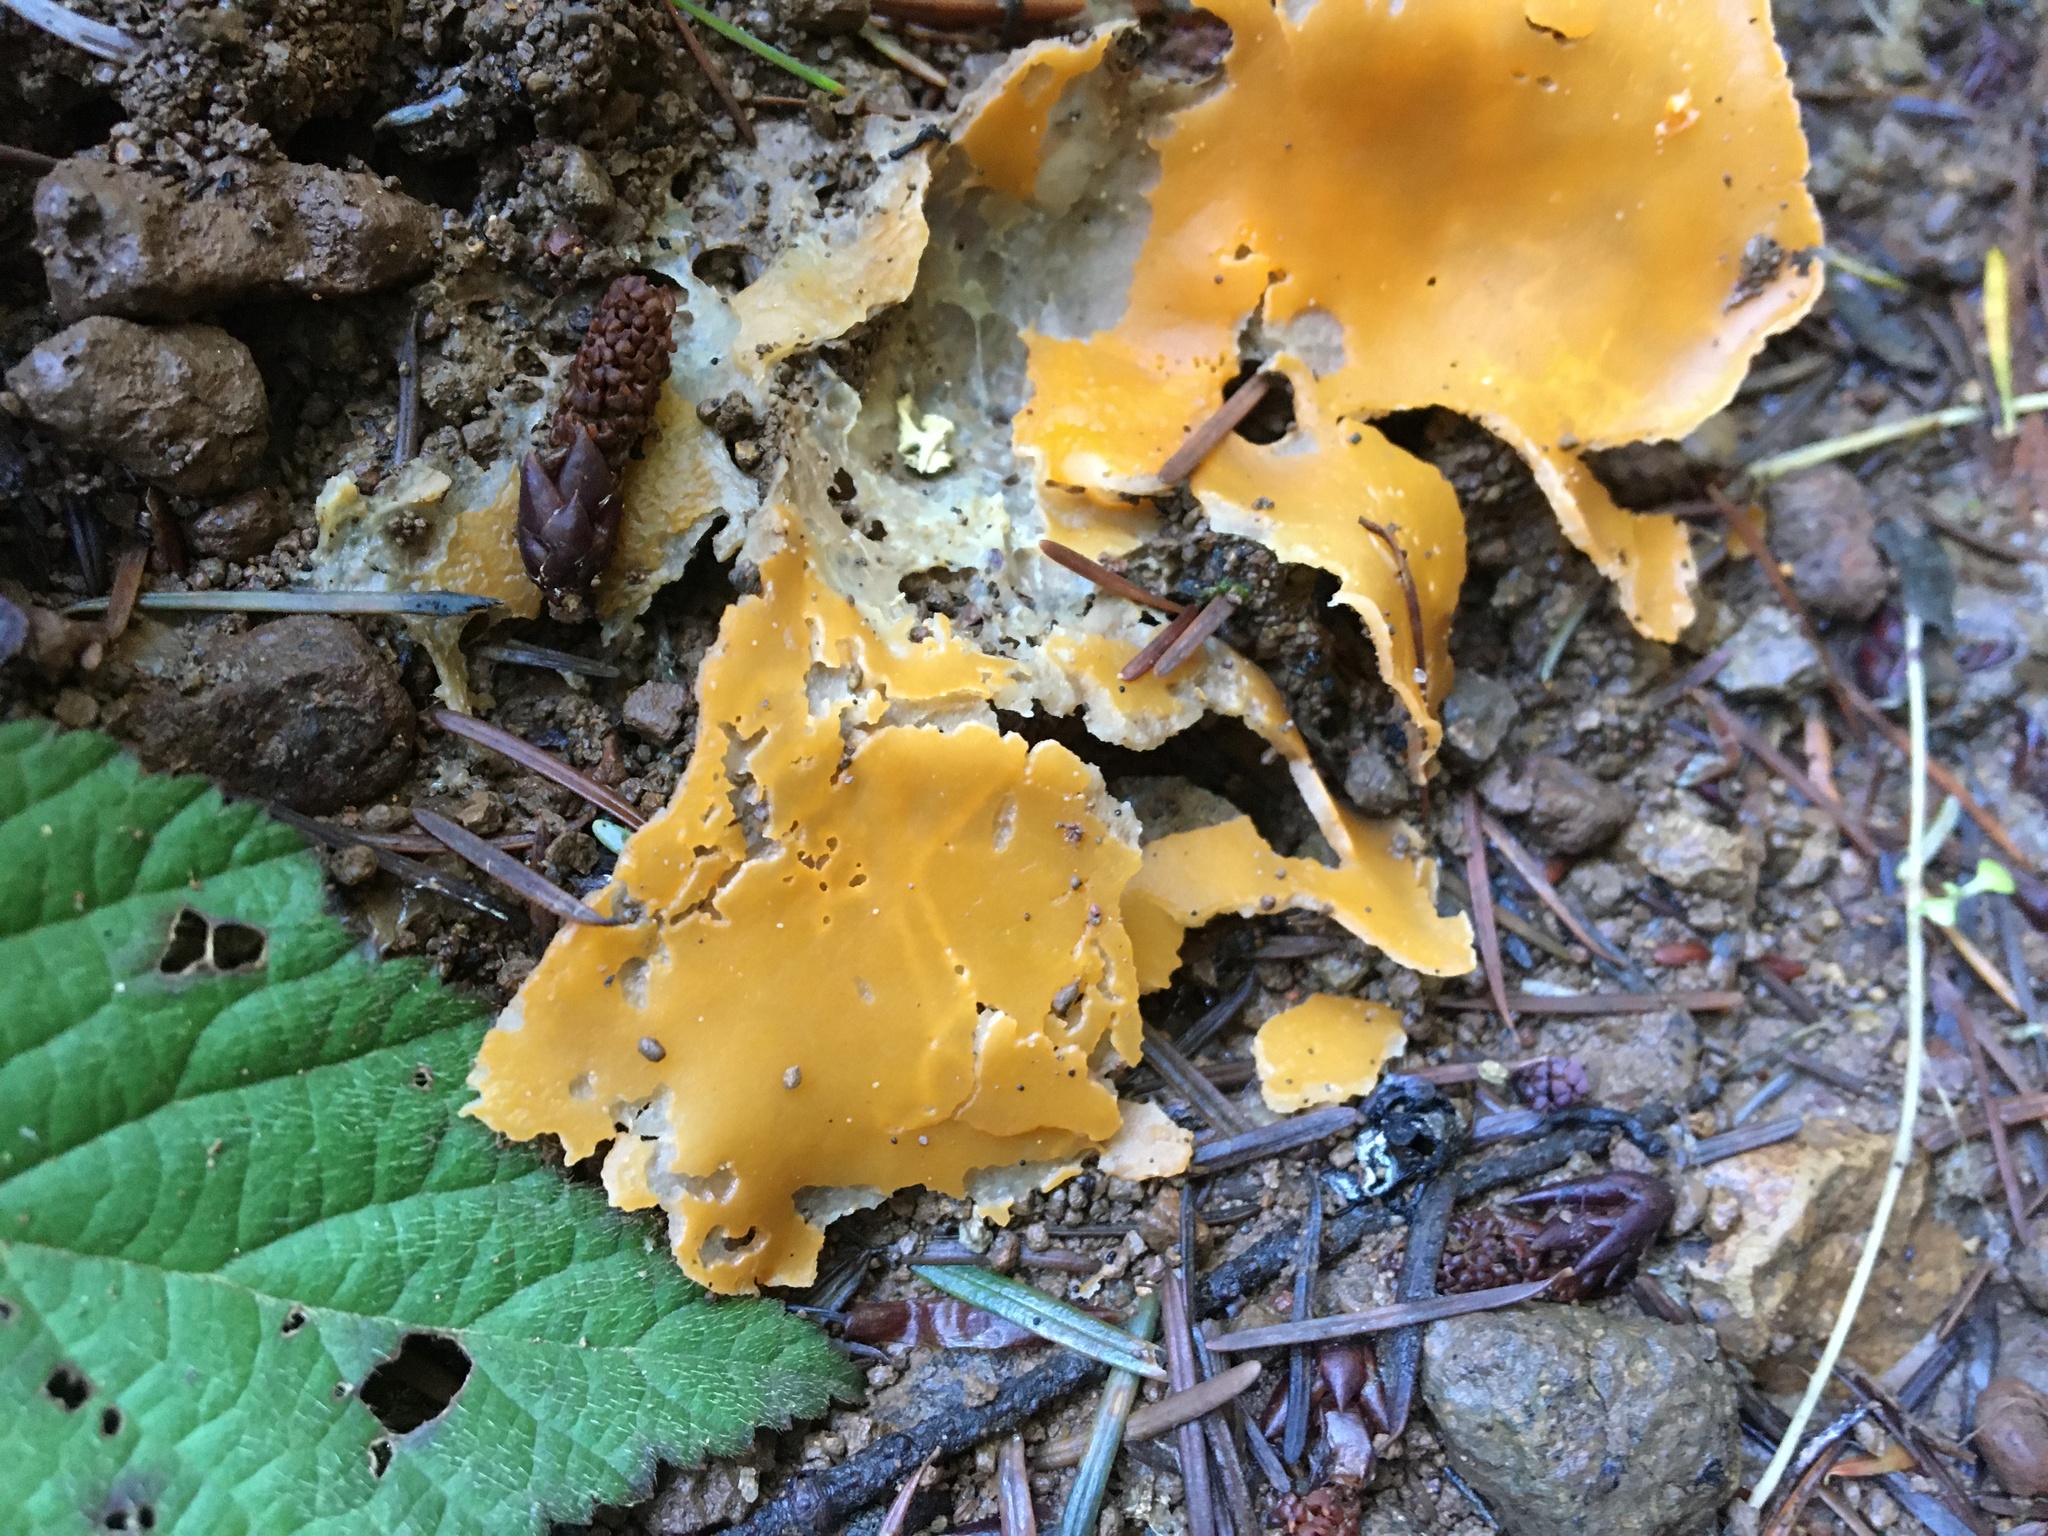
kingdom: Fungi
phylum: Ascomycota
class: Pezizomycetes
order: Pezizales
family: Pyronemataceae
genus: Aleuria
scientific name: Aleuria aurantia
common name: Orange peel fungus
